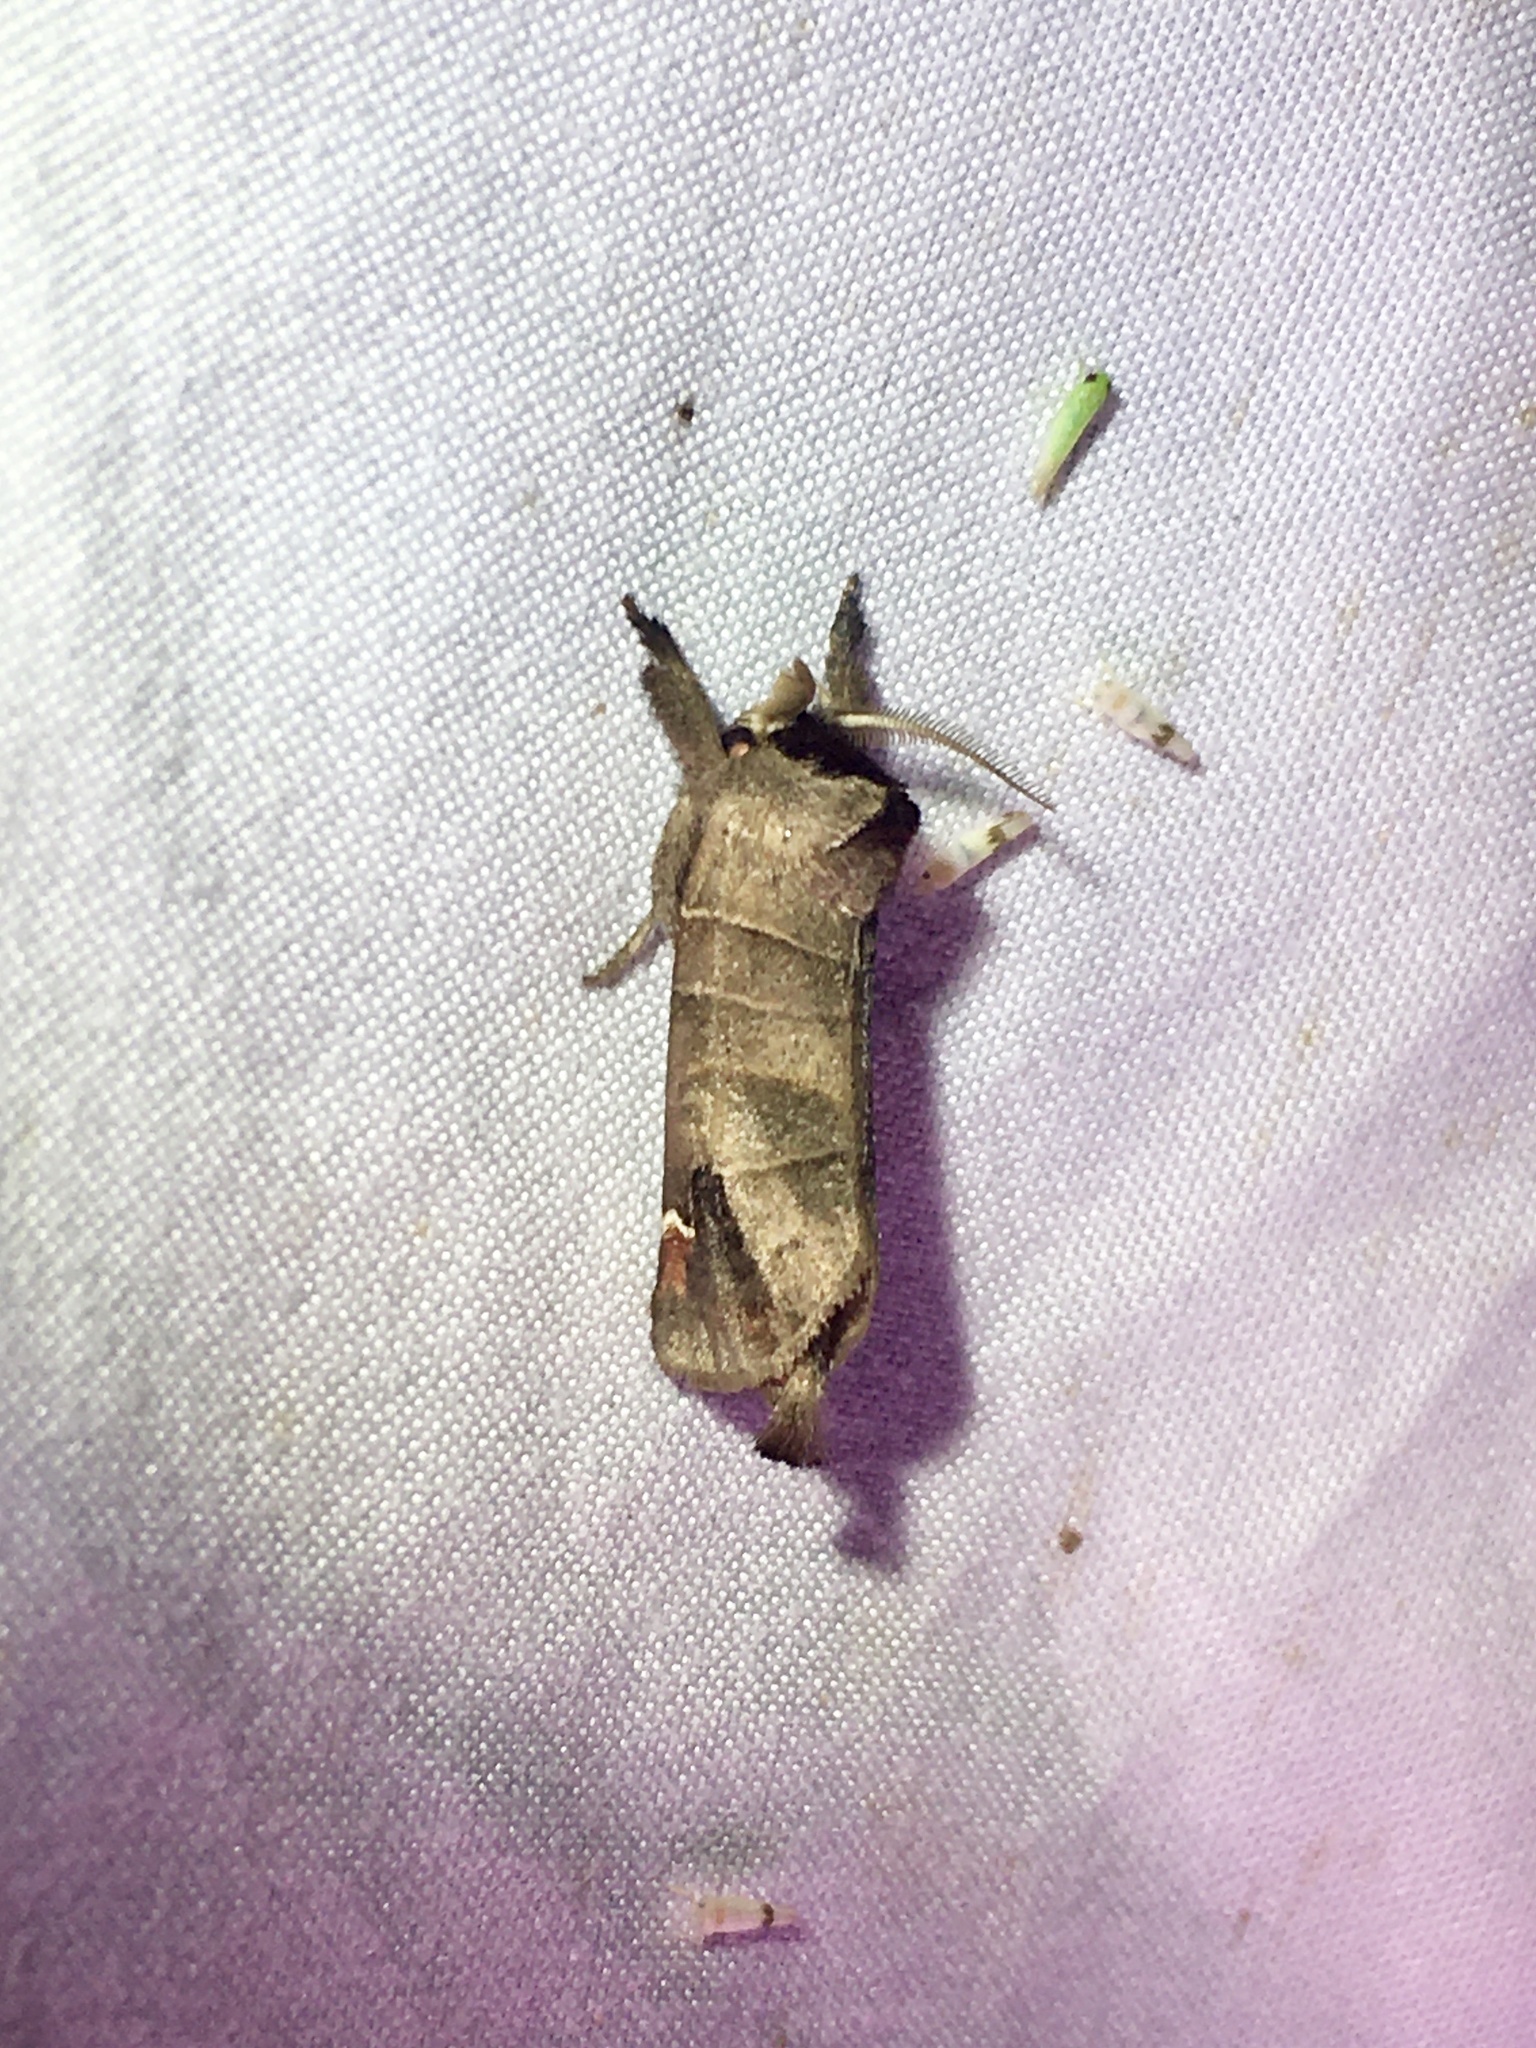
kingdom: Animalia
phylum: Arthropoda
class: Insecta
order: Lepidoptera
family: Notodontidae
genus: Clostera
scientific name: Clostera albosigma
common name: Sigmoid prominent
